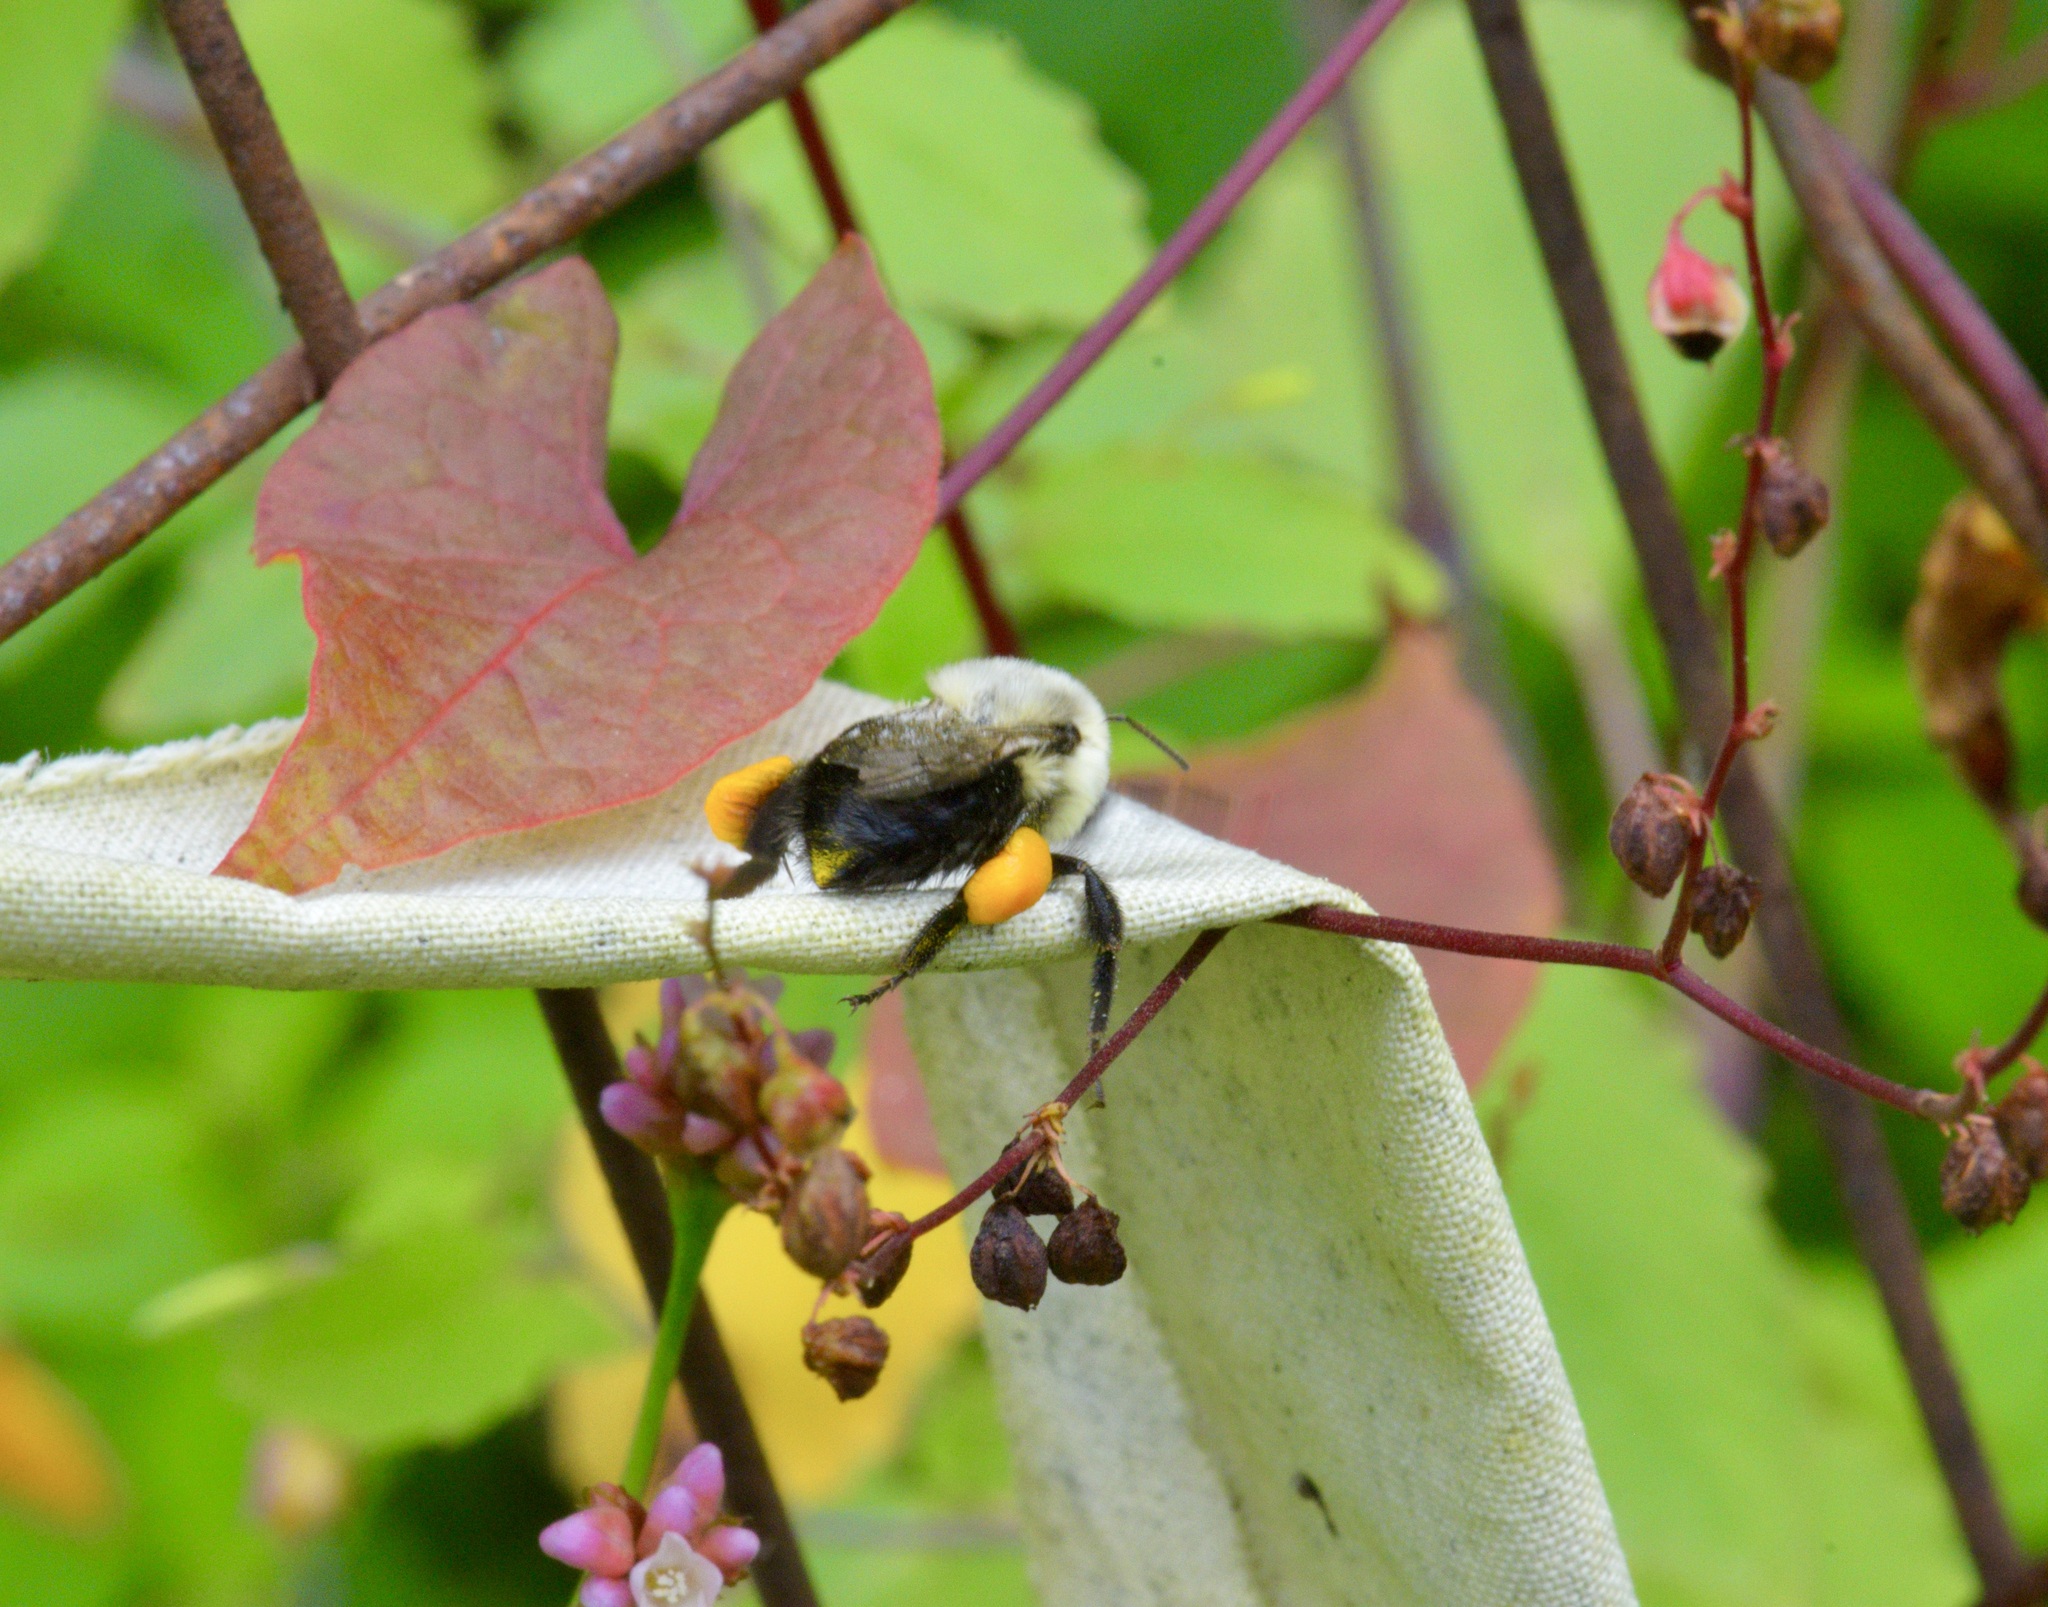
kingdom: Animalia
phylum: Arthropoda
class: Insecta
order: Hymenoptera
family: Apidae
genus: Bombus
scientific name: Bombus impatiens
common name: Common eastern bumble bee
